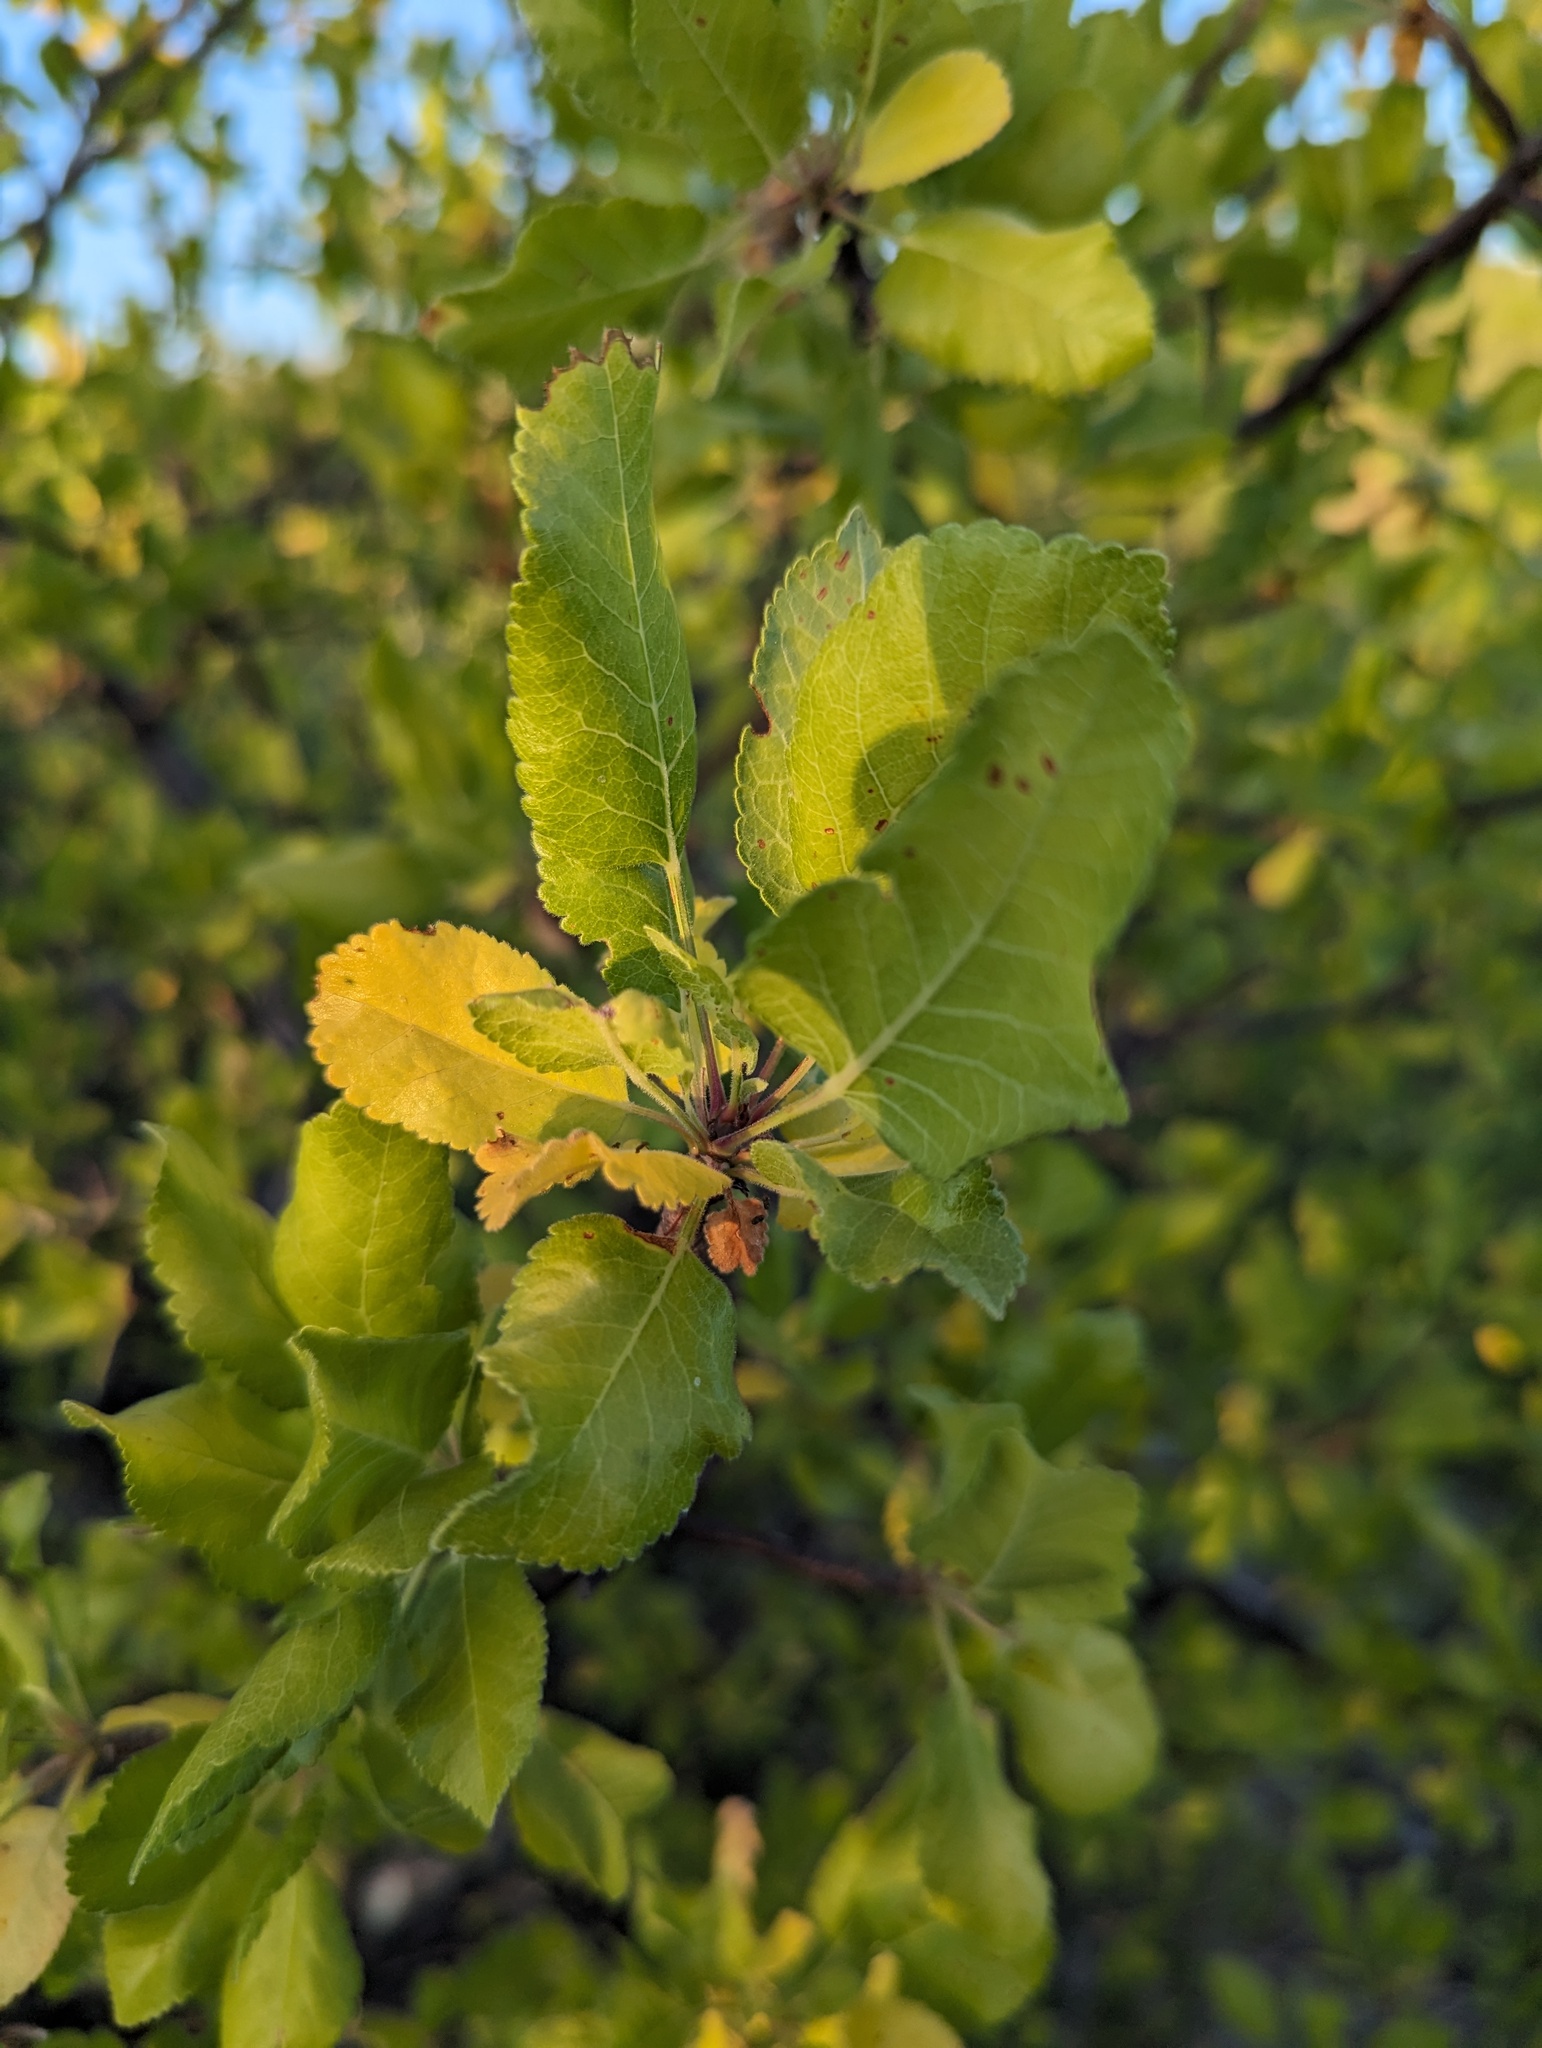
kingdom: Plantae
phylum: Tracheophyta
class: Magnoliopsida
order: Sapindales
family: Burseraceae
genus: Bursera
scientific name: Bursera epinnata
